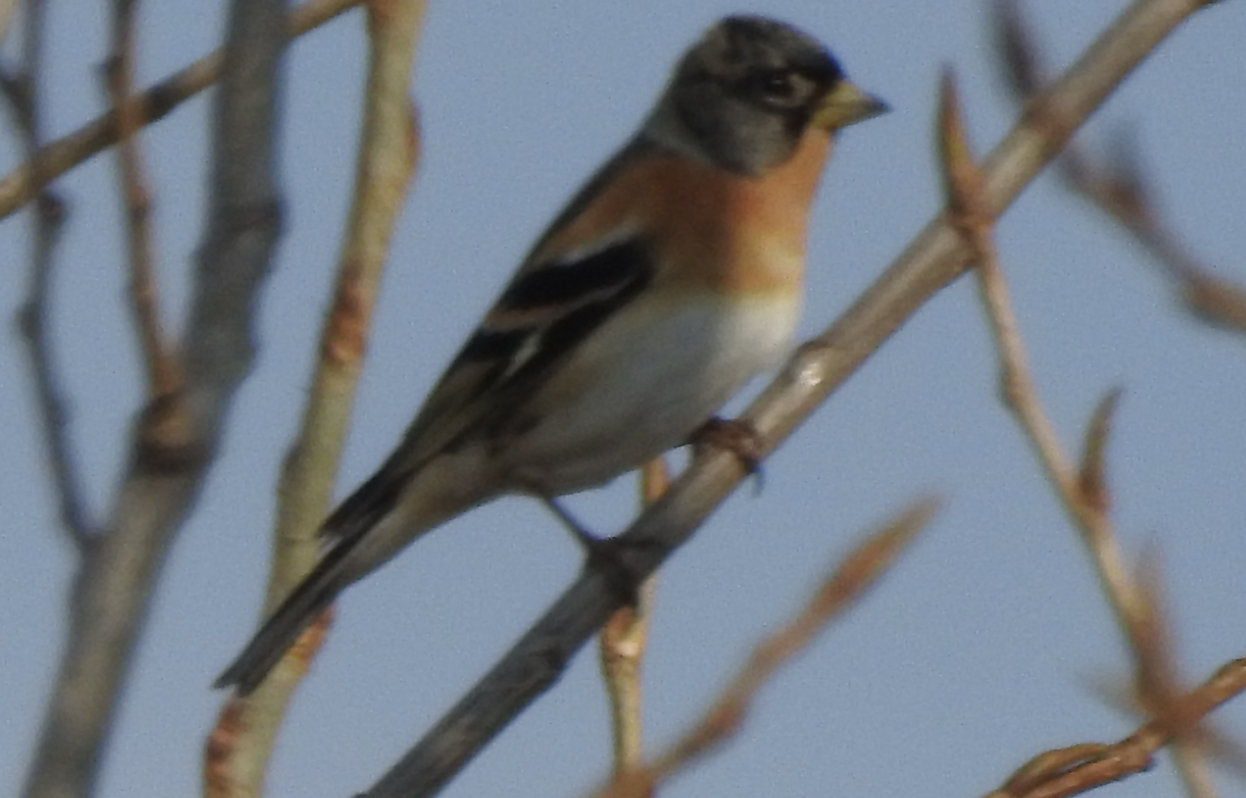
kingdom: Animalia
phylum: Chordata
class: Aves
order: Passeriformes
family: Fringillidae
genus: Fringilla
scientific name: Fringilla montifringilla
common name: Brambling
